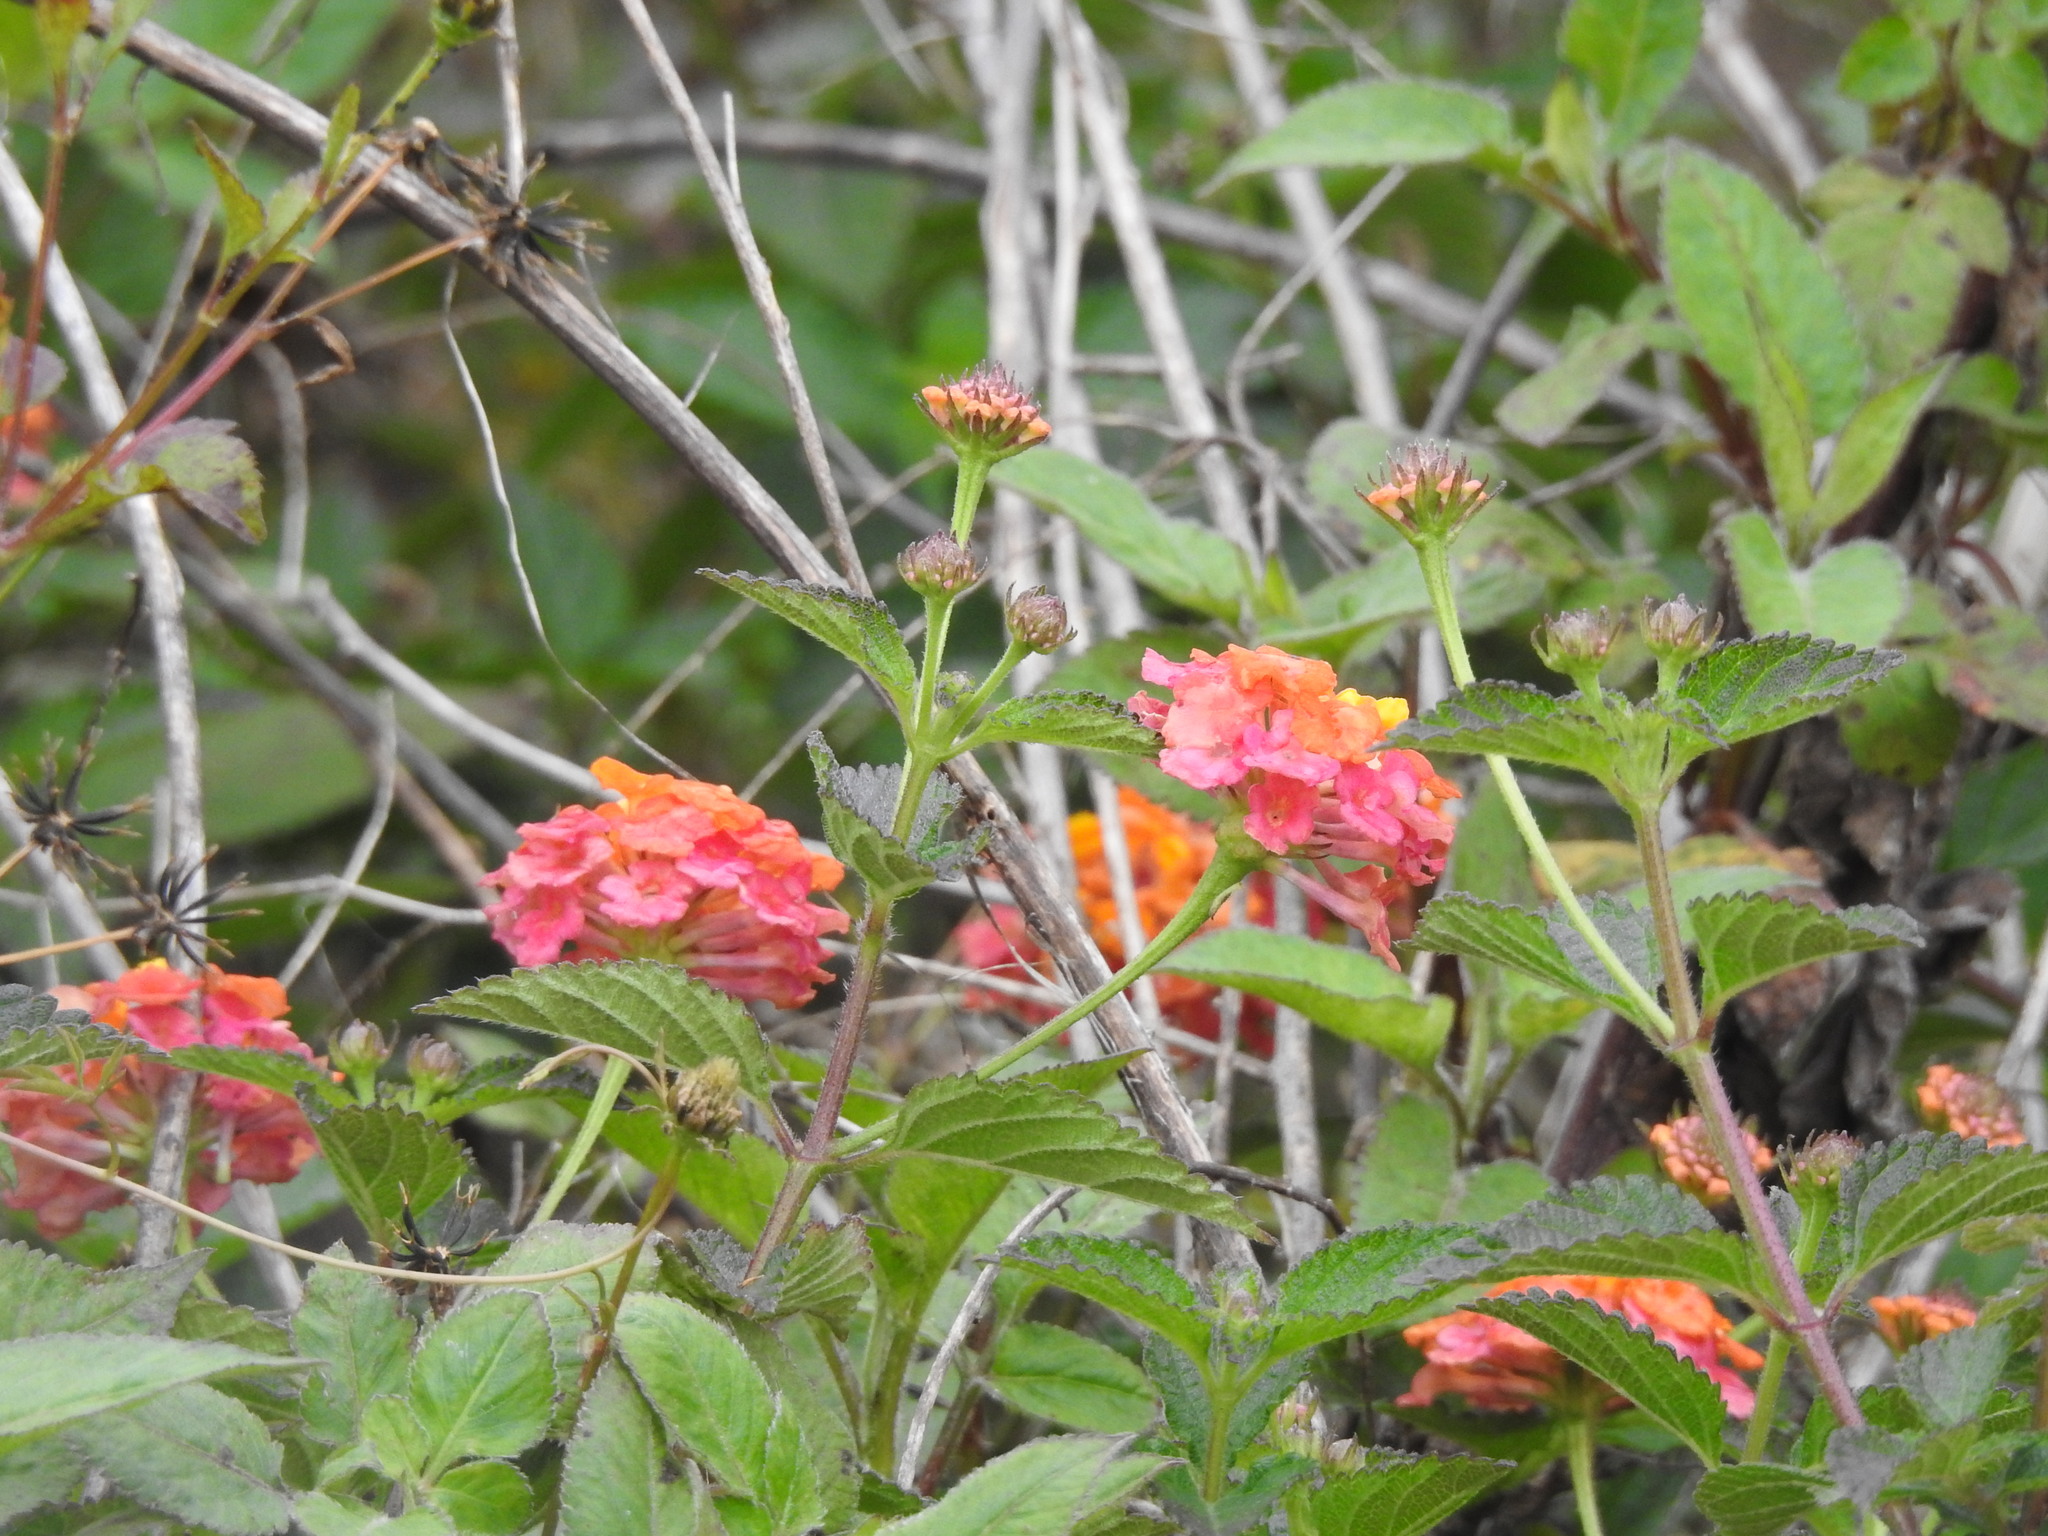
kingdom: Plantae
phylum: Tracheophyta
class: Magnoliopsida
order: Lamiales
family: Verbenaceae
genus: Lantana
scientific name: Lantana camara
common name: Lantana
